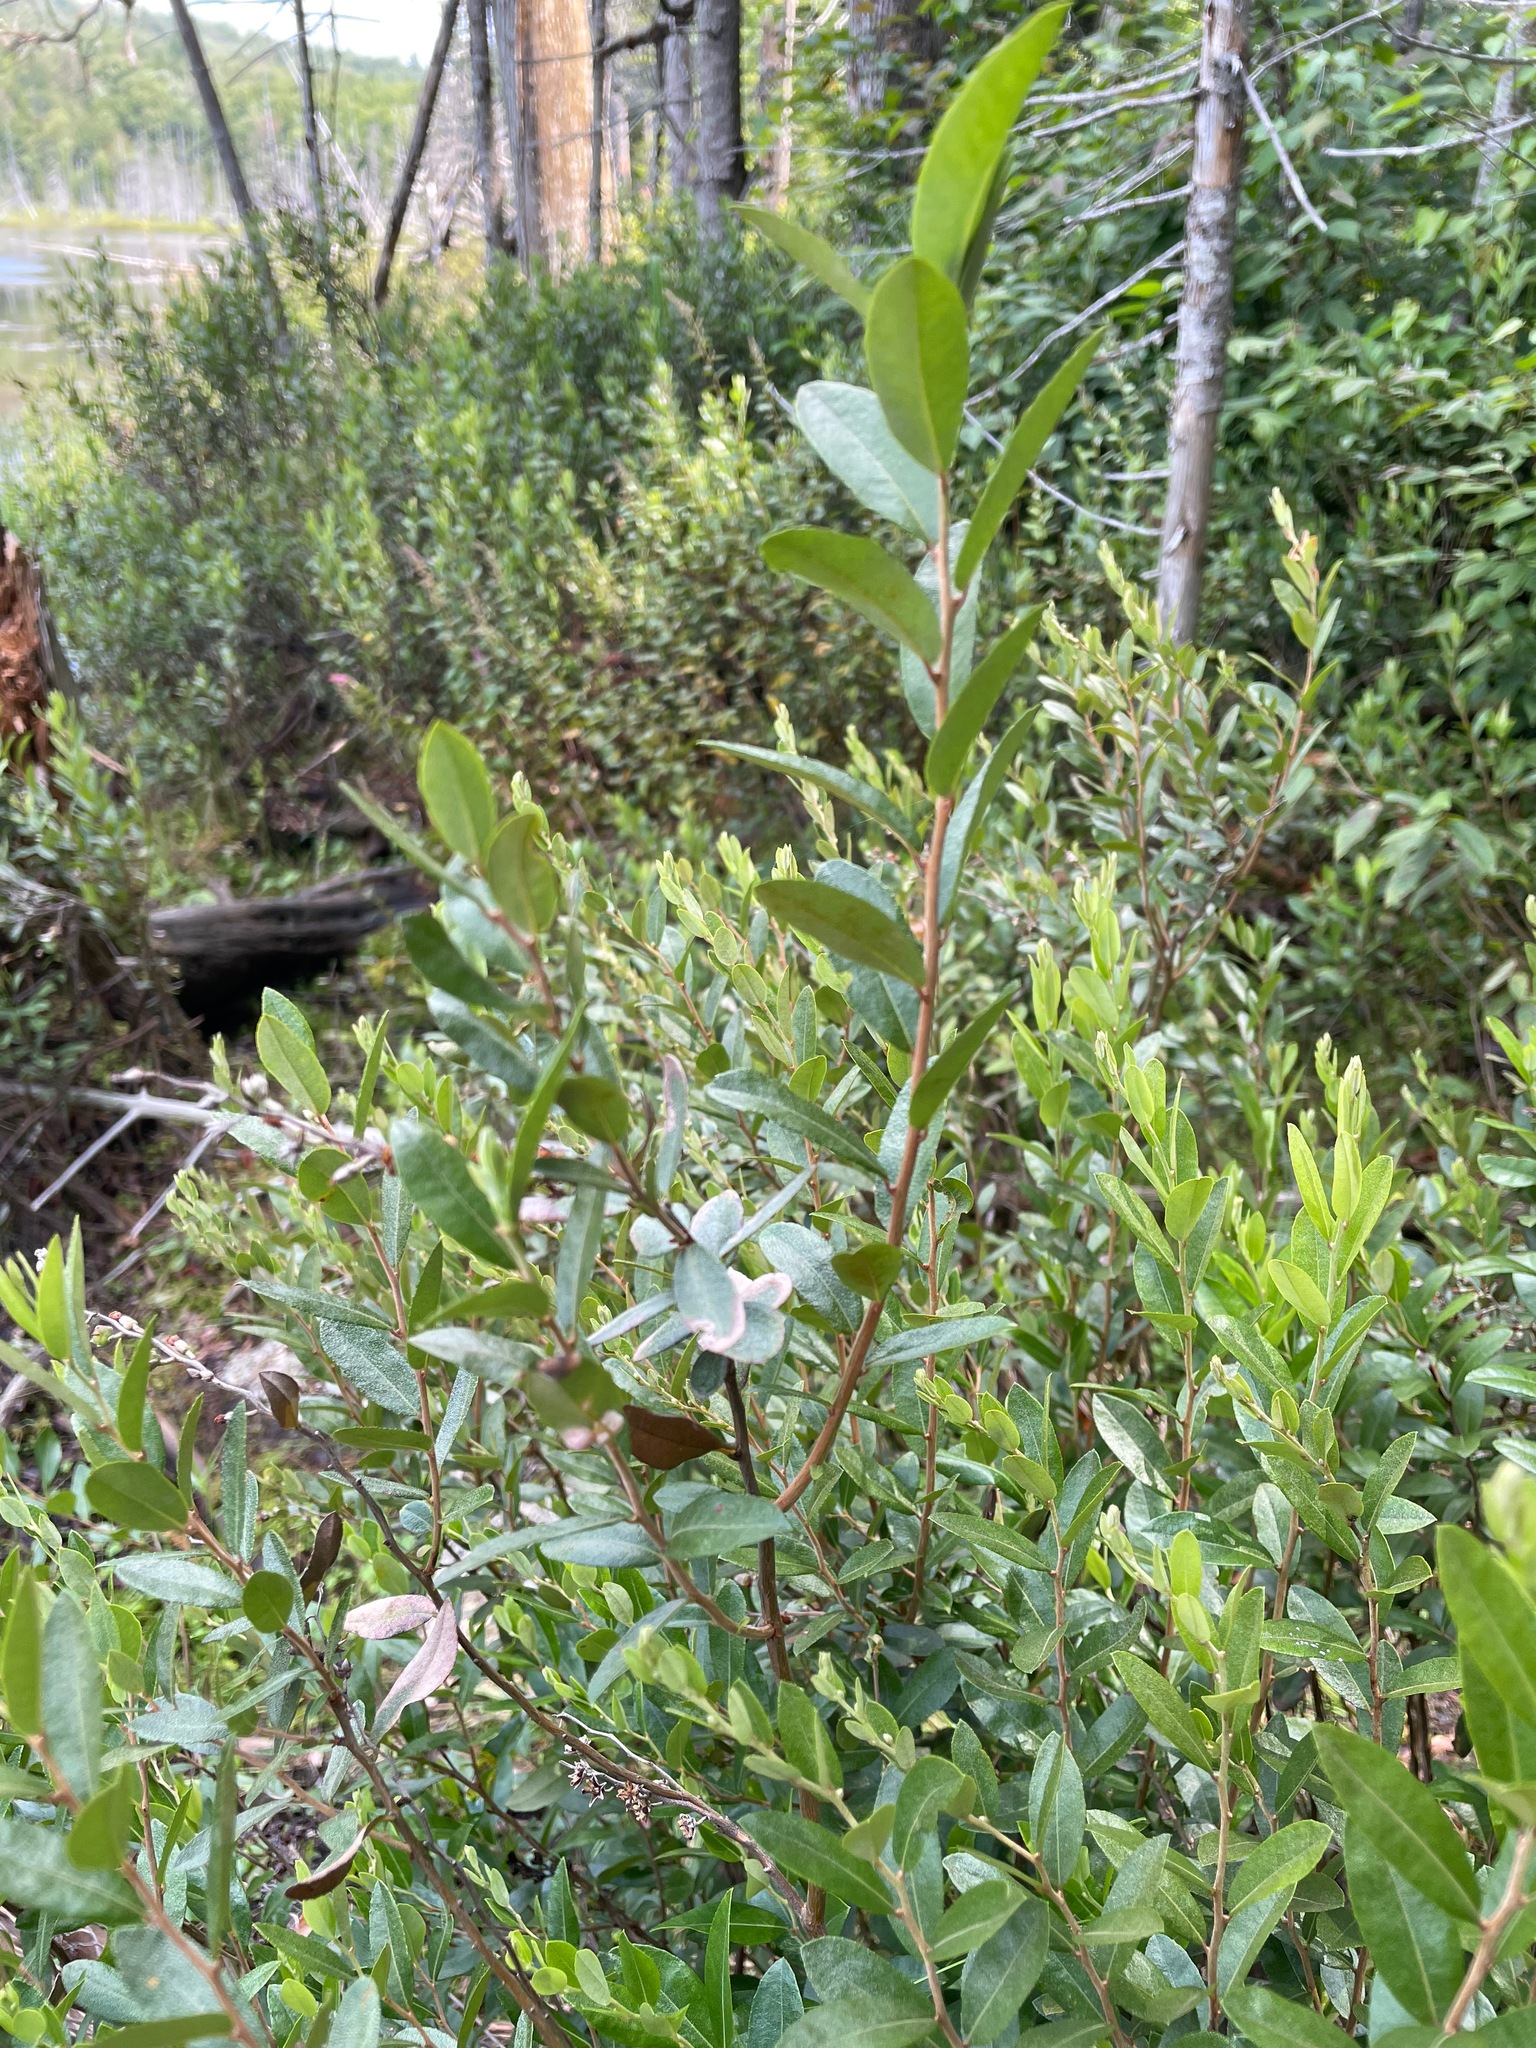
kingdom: Plantae
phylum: Tracheophyta
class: Magnoliopsida
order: Ericales
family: Ericaceae
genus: Chamaedaphne
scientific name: Chamaedaphne calyculata
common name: Leatherleaf
